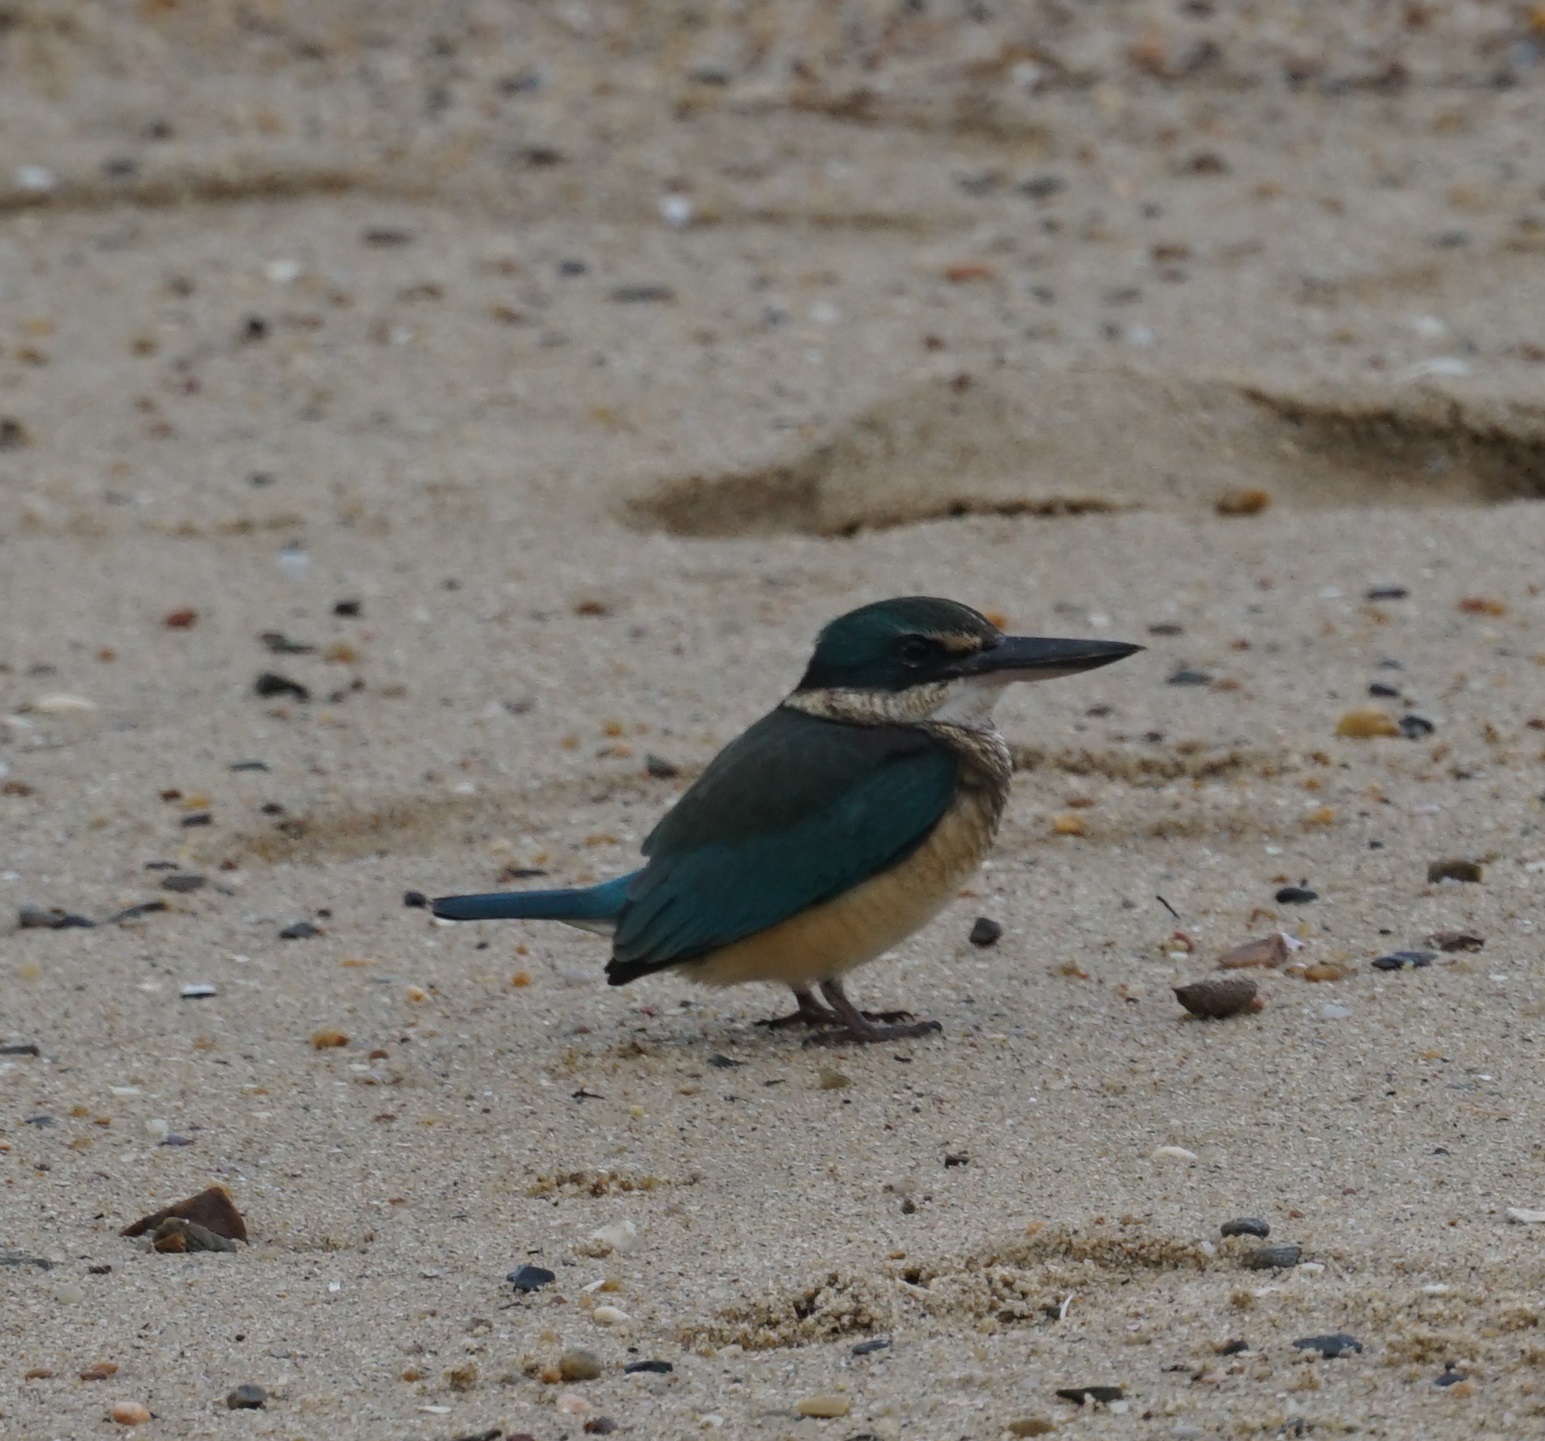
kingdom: Animalia
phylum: Chordata
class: Aves
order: Coraciiformes
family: Alcedinidae
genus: Todiramphus
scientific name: Todiramphus sanctus
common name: Sacred kingfisher
